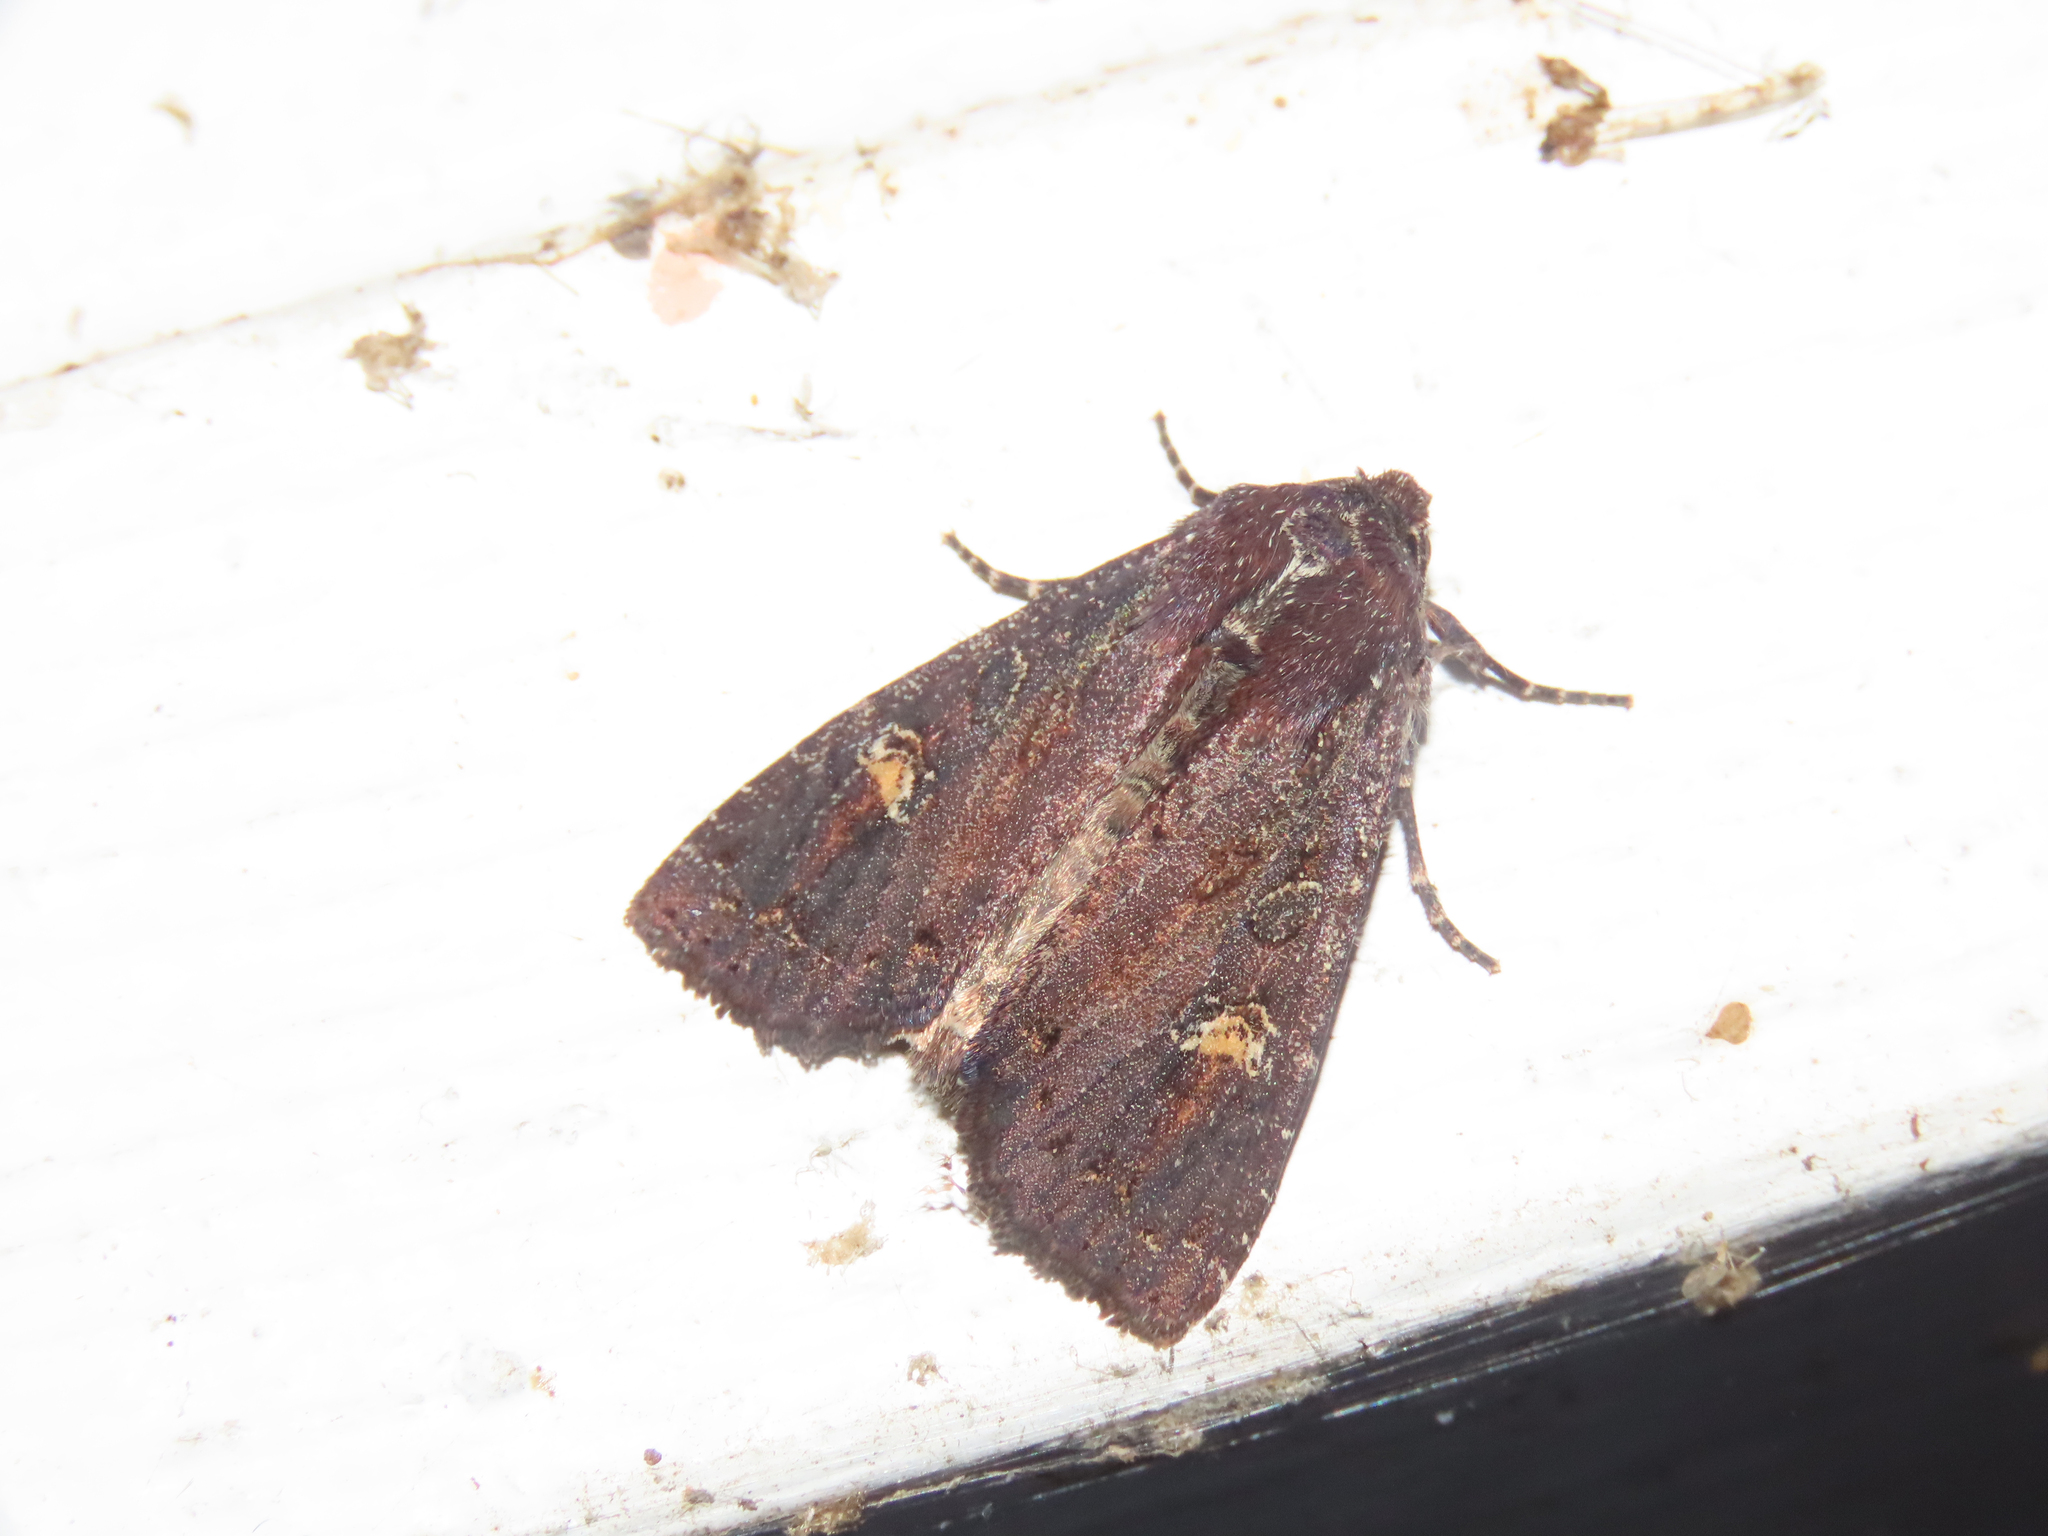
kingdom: Animalia
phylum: Arthropoda
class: Insecta
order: Lepidoptera
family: Noctuidae
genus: Apamea
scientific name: Apamea dubitans
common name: Doubtful apamea moth
